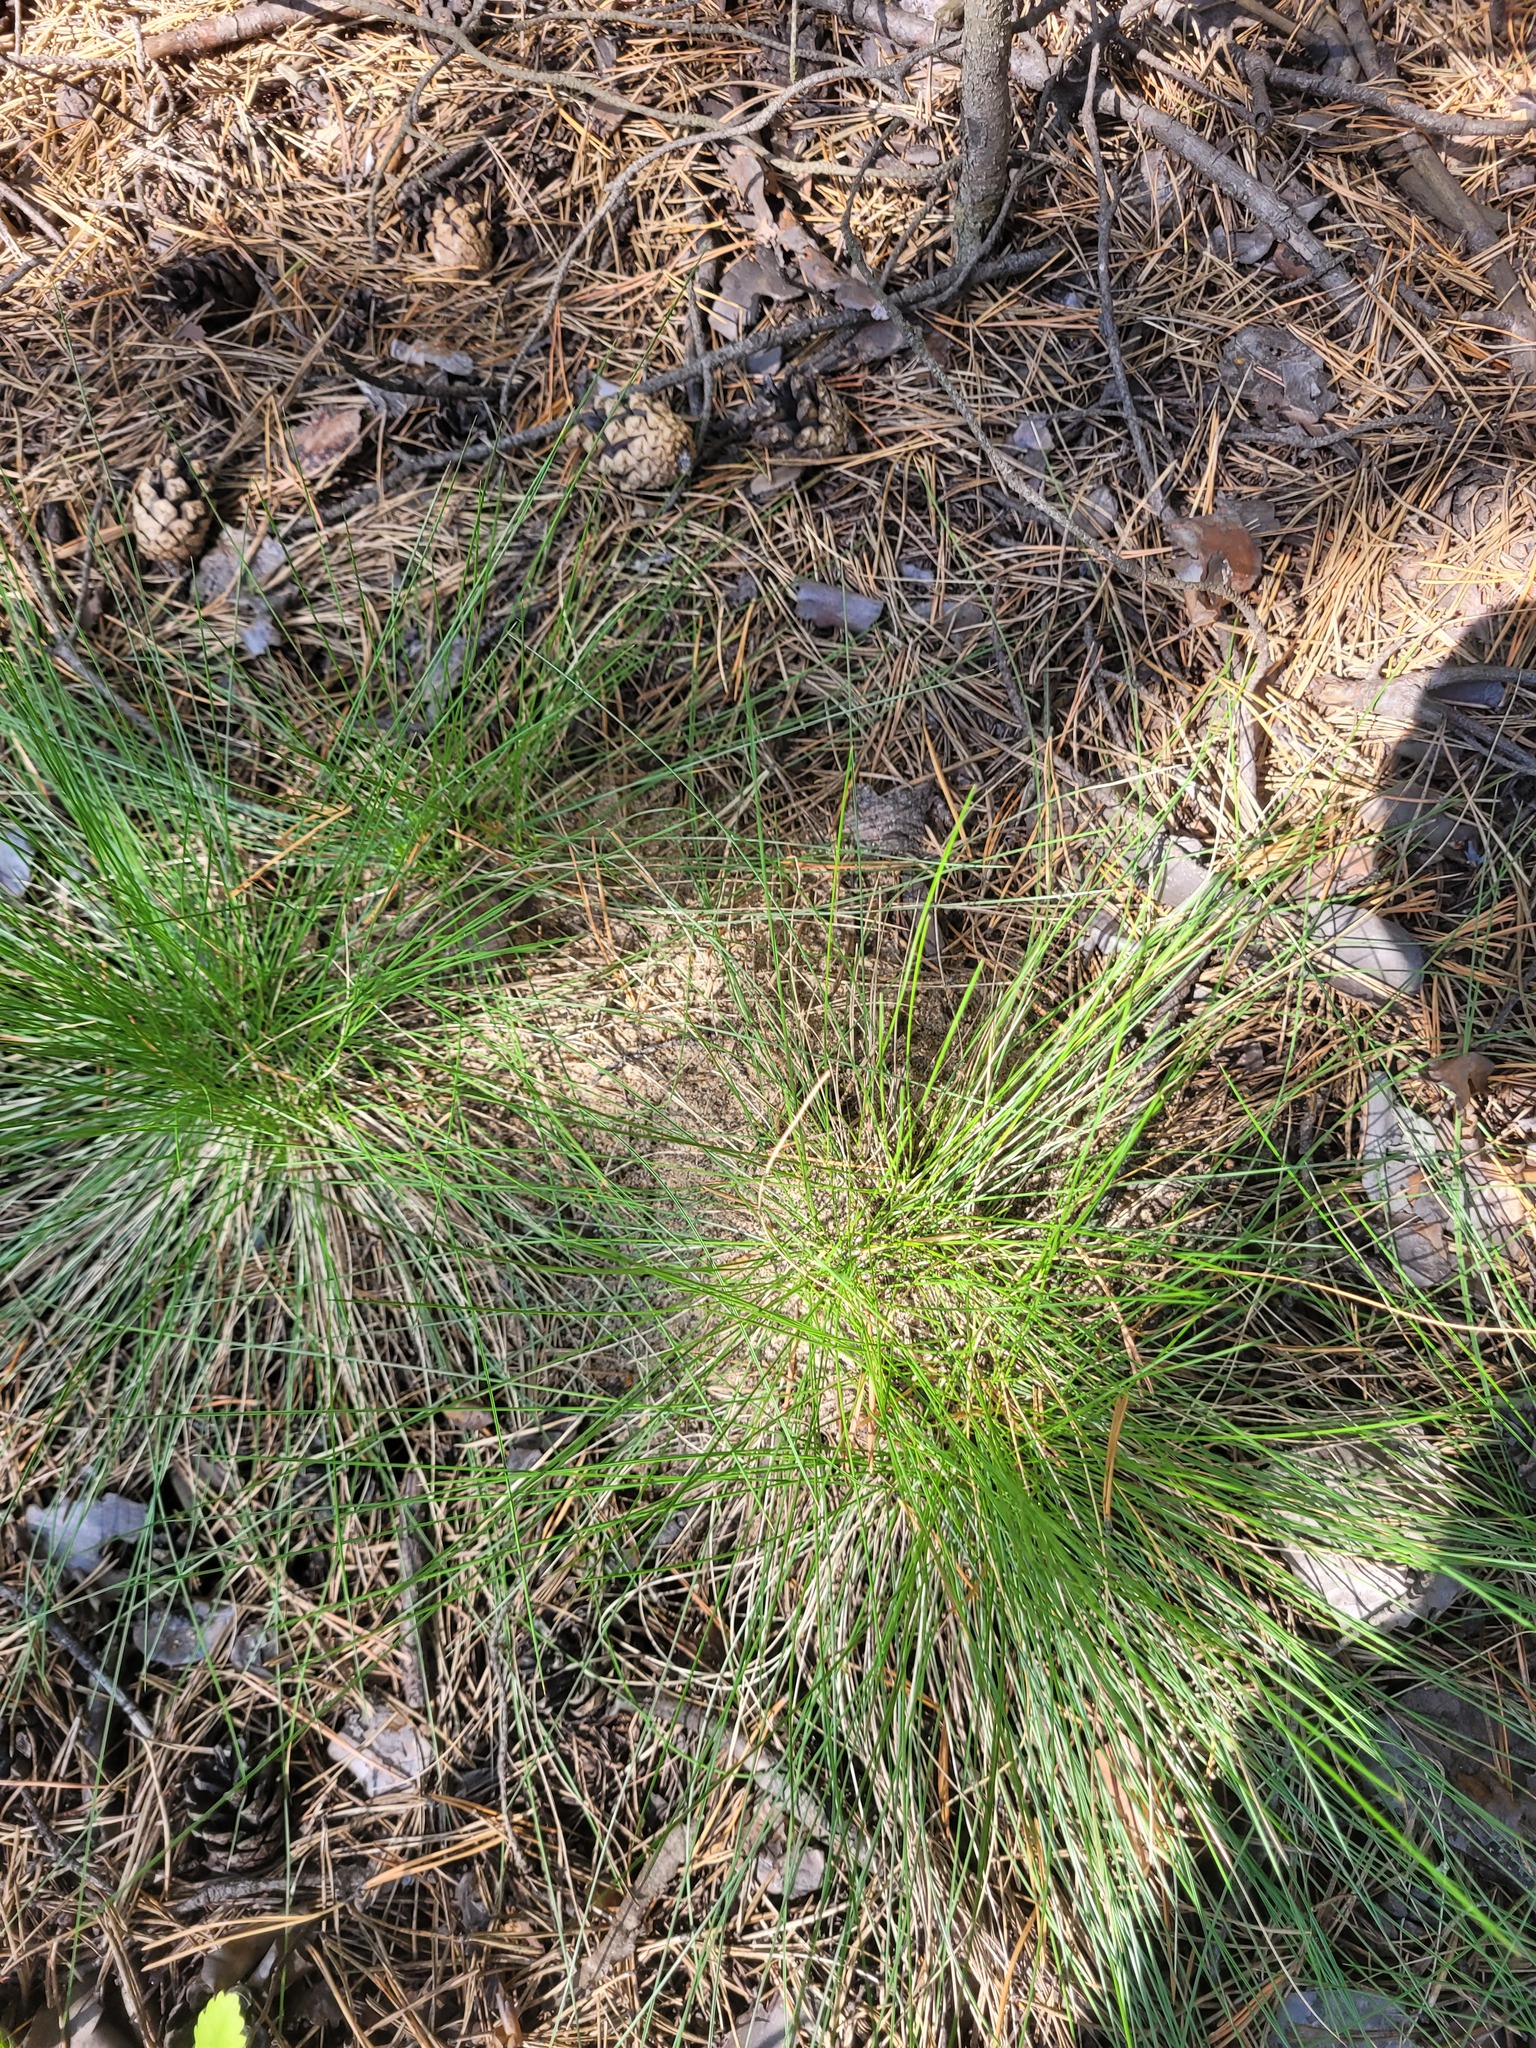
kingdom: Plantae
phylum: Tracheophyta
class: Liliopsida
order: Poales
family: Poaceae
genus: Nardus
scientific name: Nardus stricta
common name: Mat-grass
